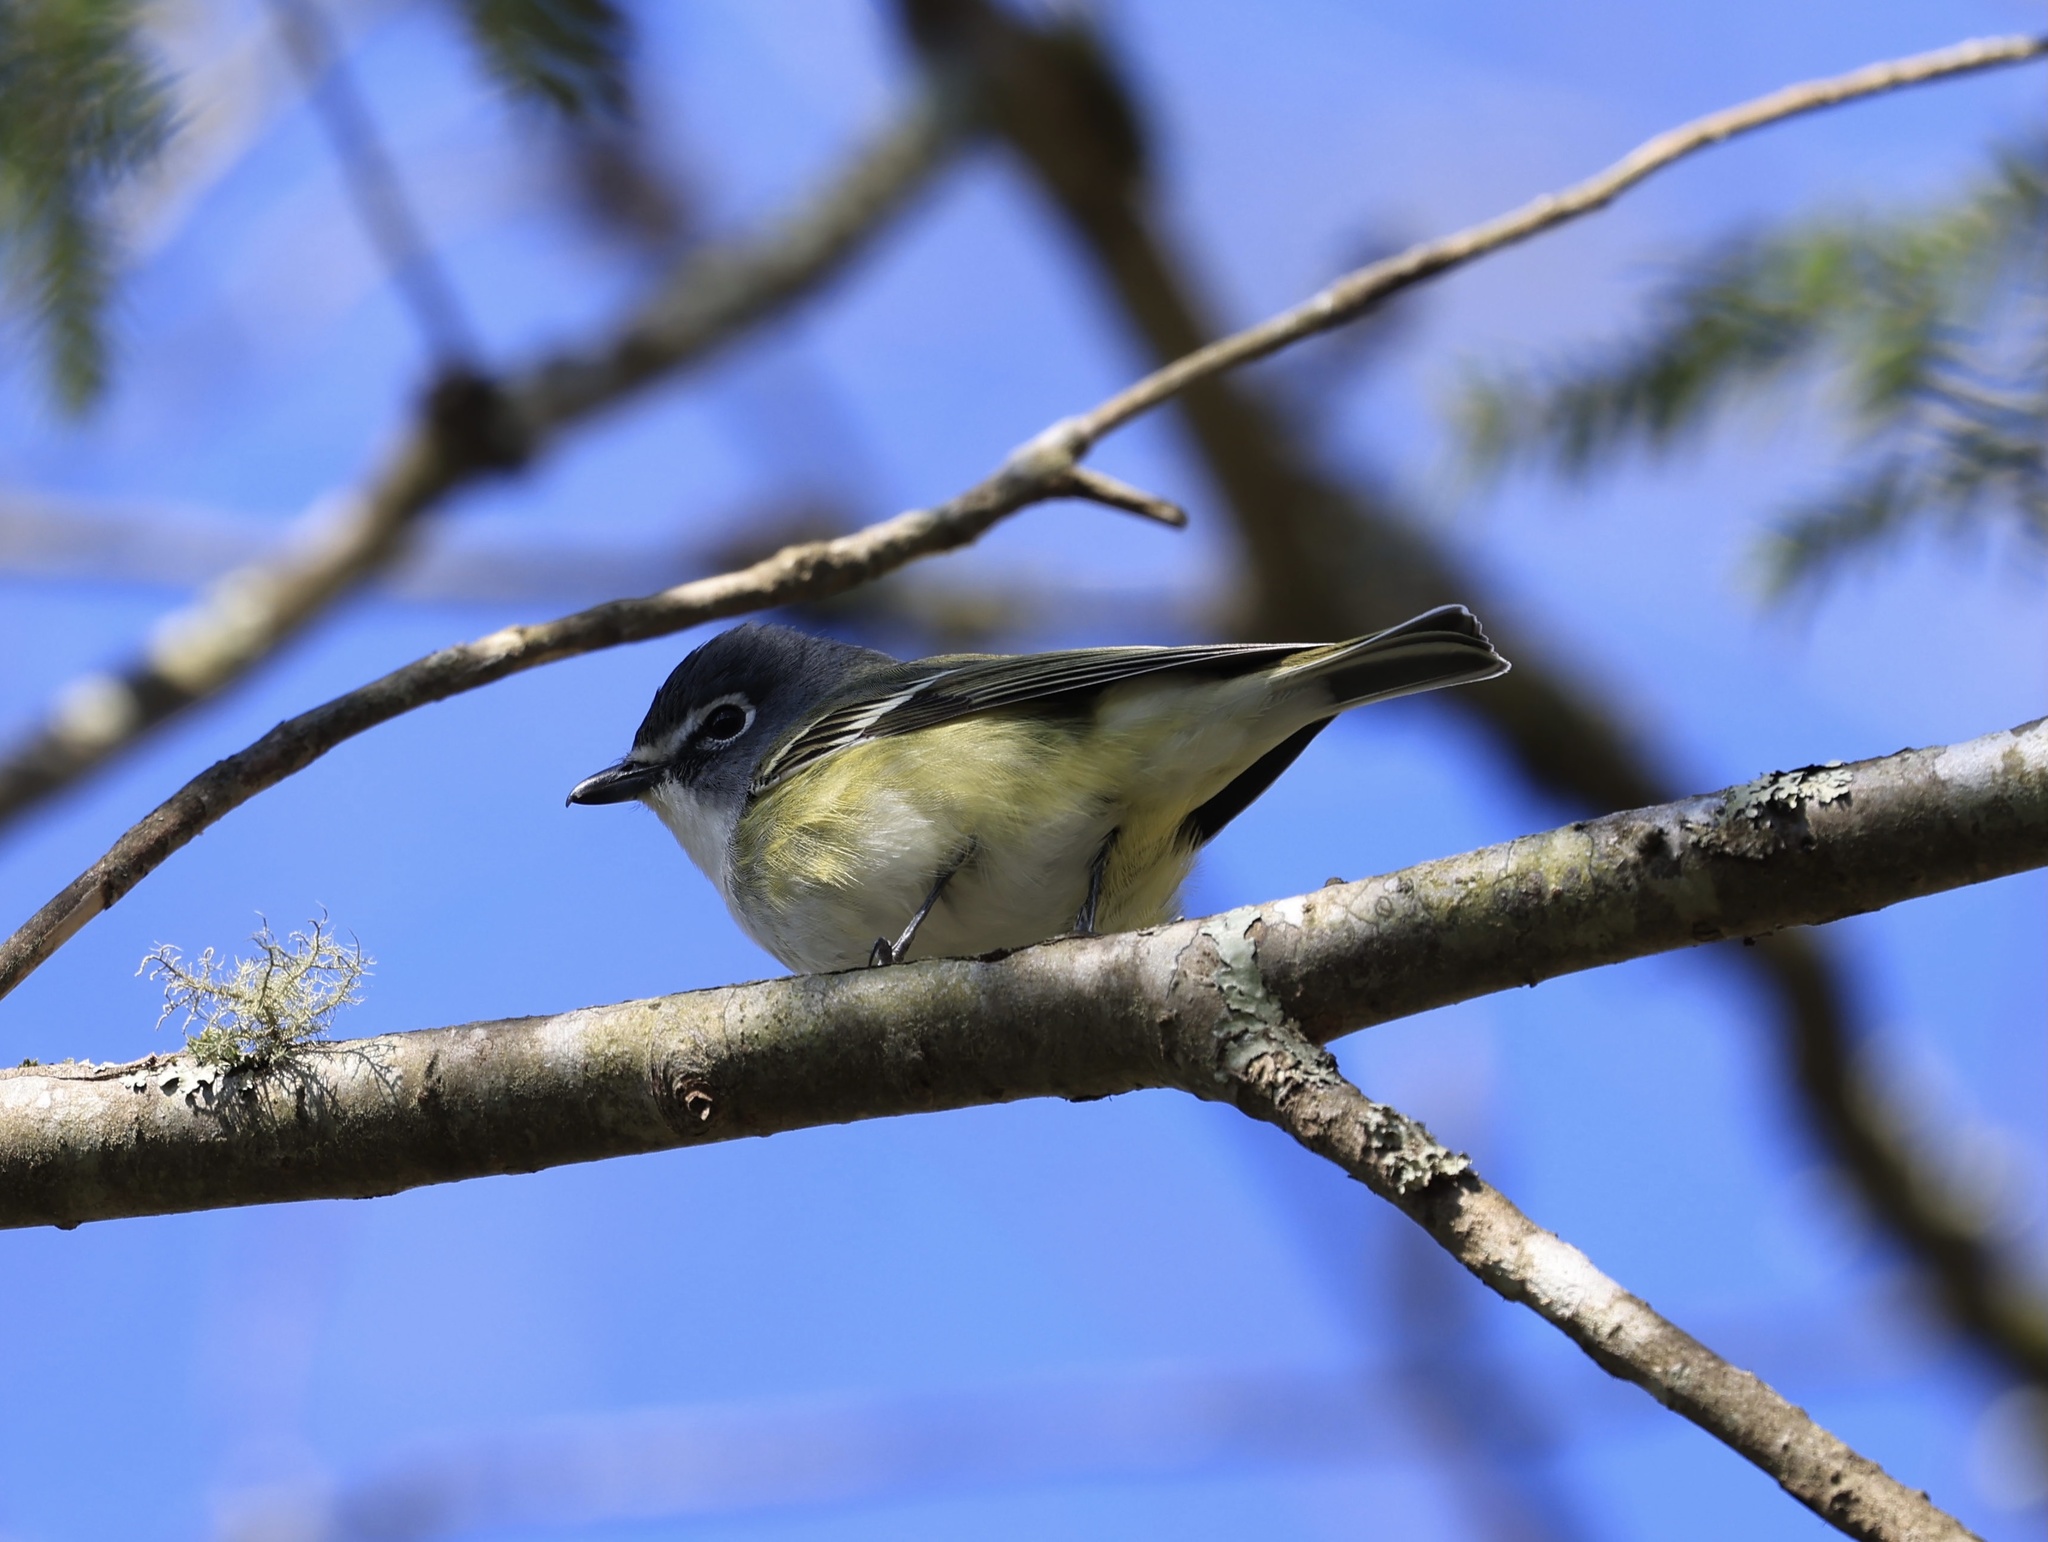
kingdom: Animalia
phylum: Chordata
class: Aves
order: Passeriformes
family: Vireonidae
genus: Vireo
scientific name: Vireo solitarius
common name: Blue-headed vireo
